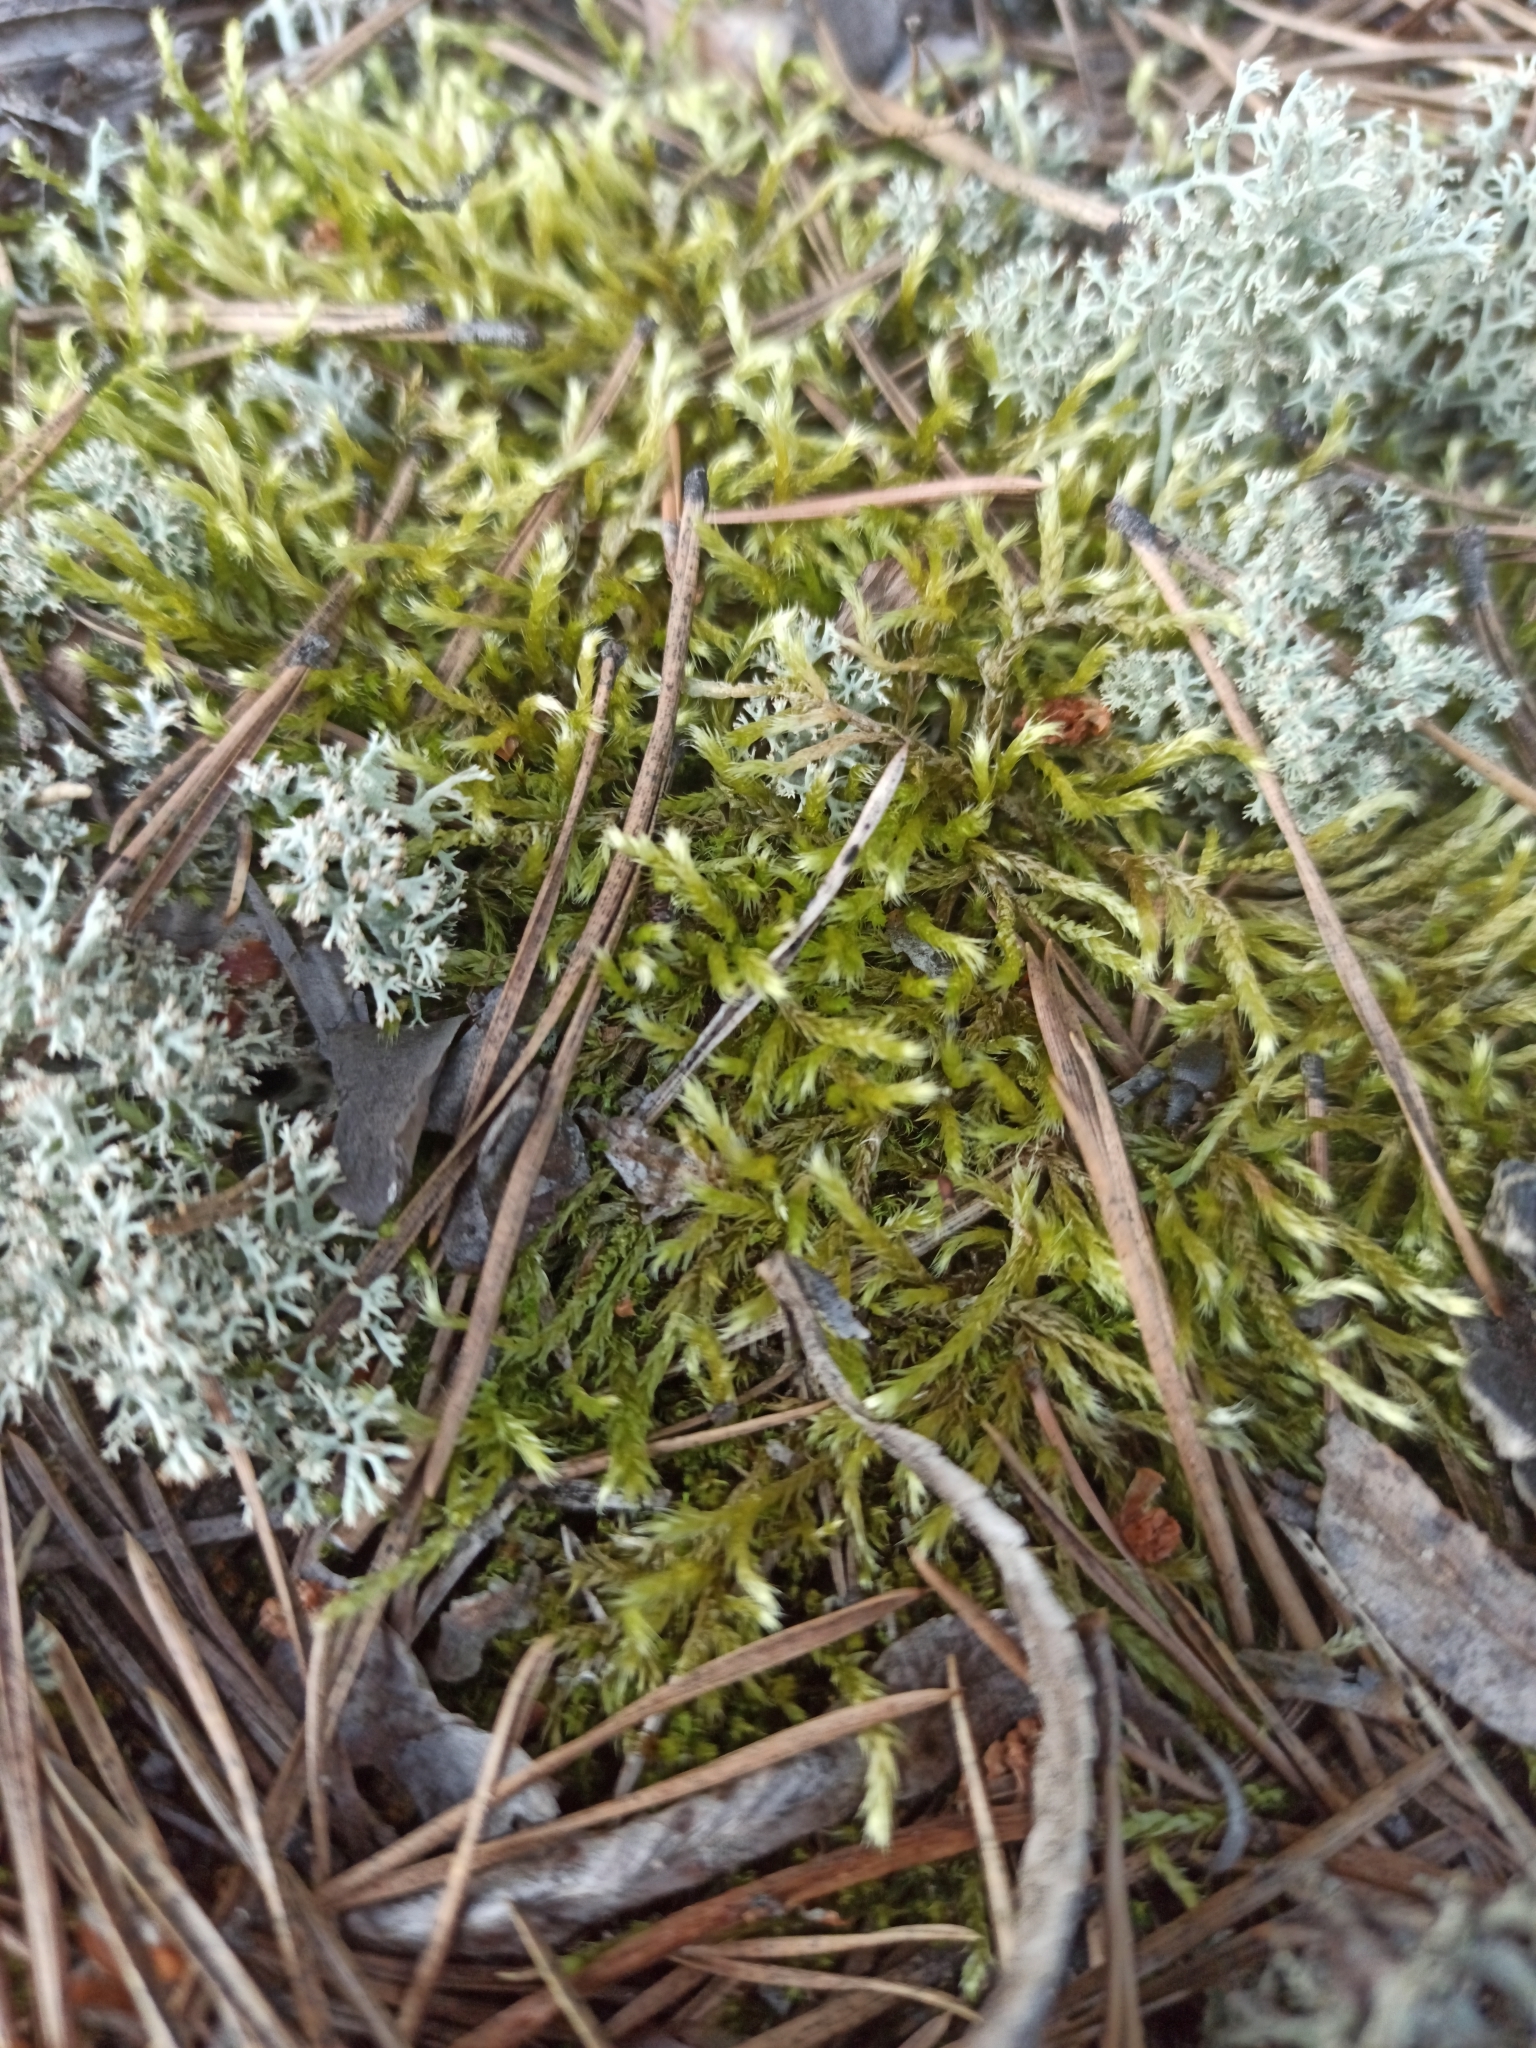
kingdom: Plantae
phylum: Bryophyta
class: Bryopsida
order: Hypnales
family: Brachytheciaceae
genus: Brachythecium
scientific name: Brachythecium albicans
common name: Whitish ragged moss
